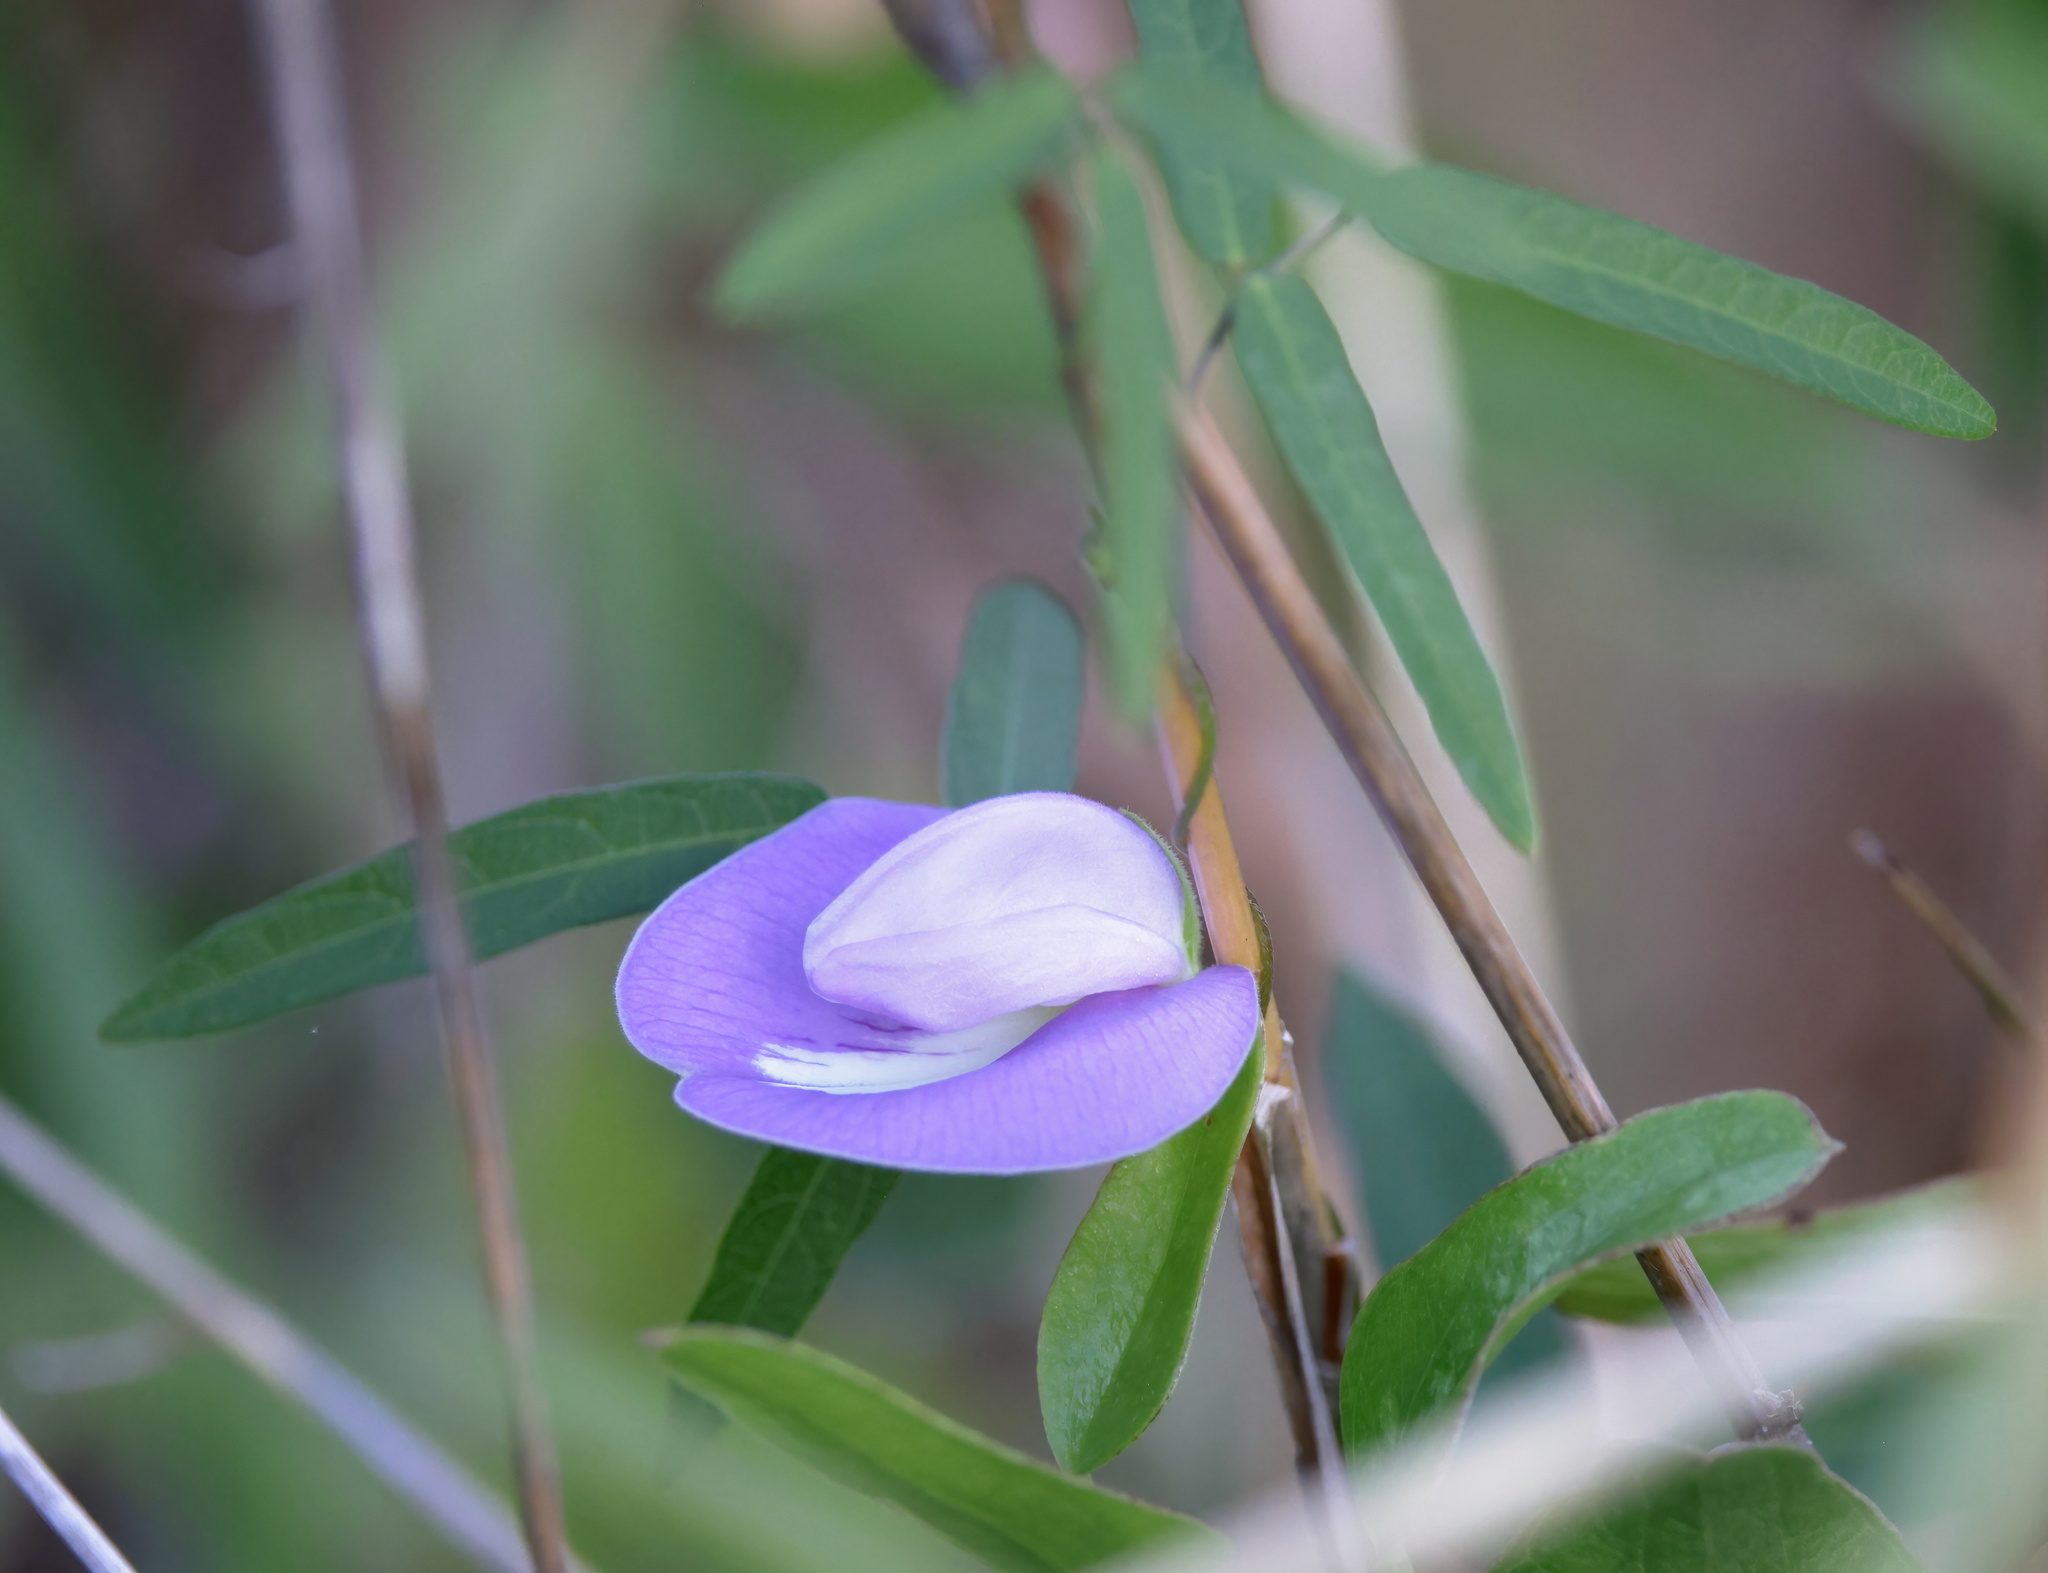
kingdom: Plantae
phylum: Tracheophyta
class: Magnoliopsida
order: Fabales
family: Fabaceae
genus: Centrosema
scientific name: Centrosema virginianum
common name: Butterfly-pea
